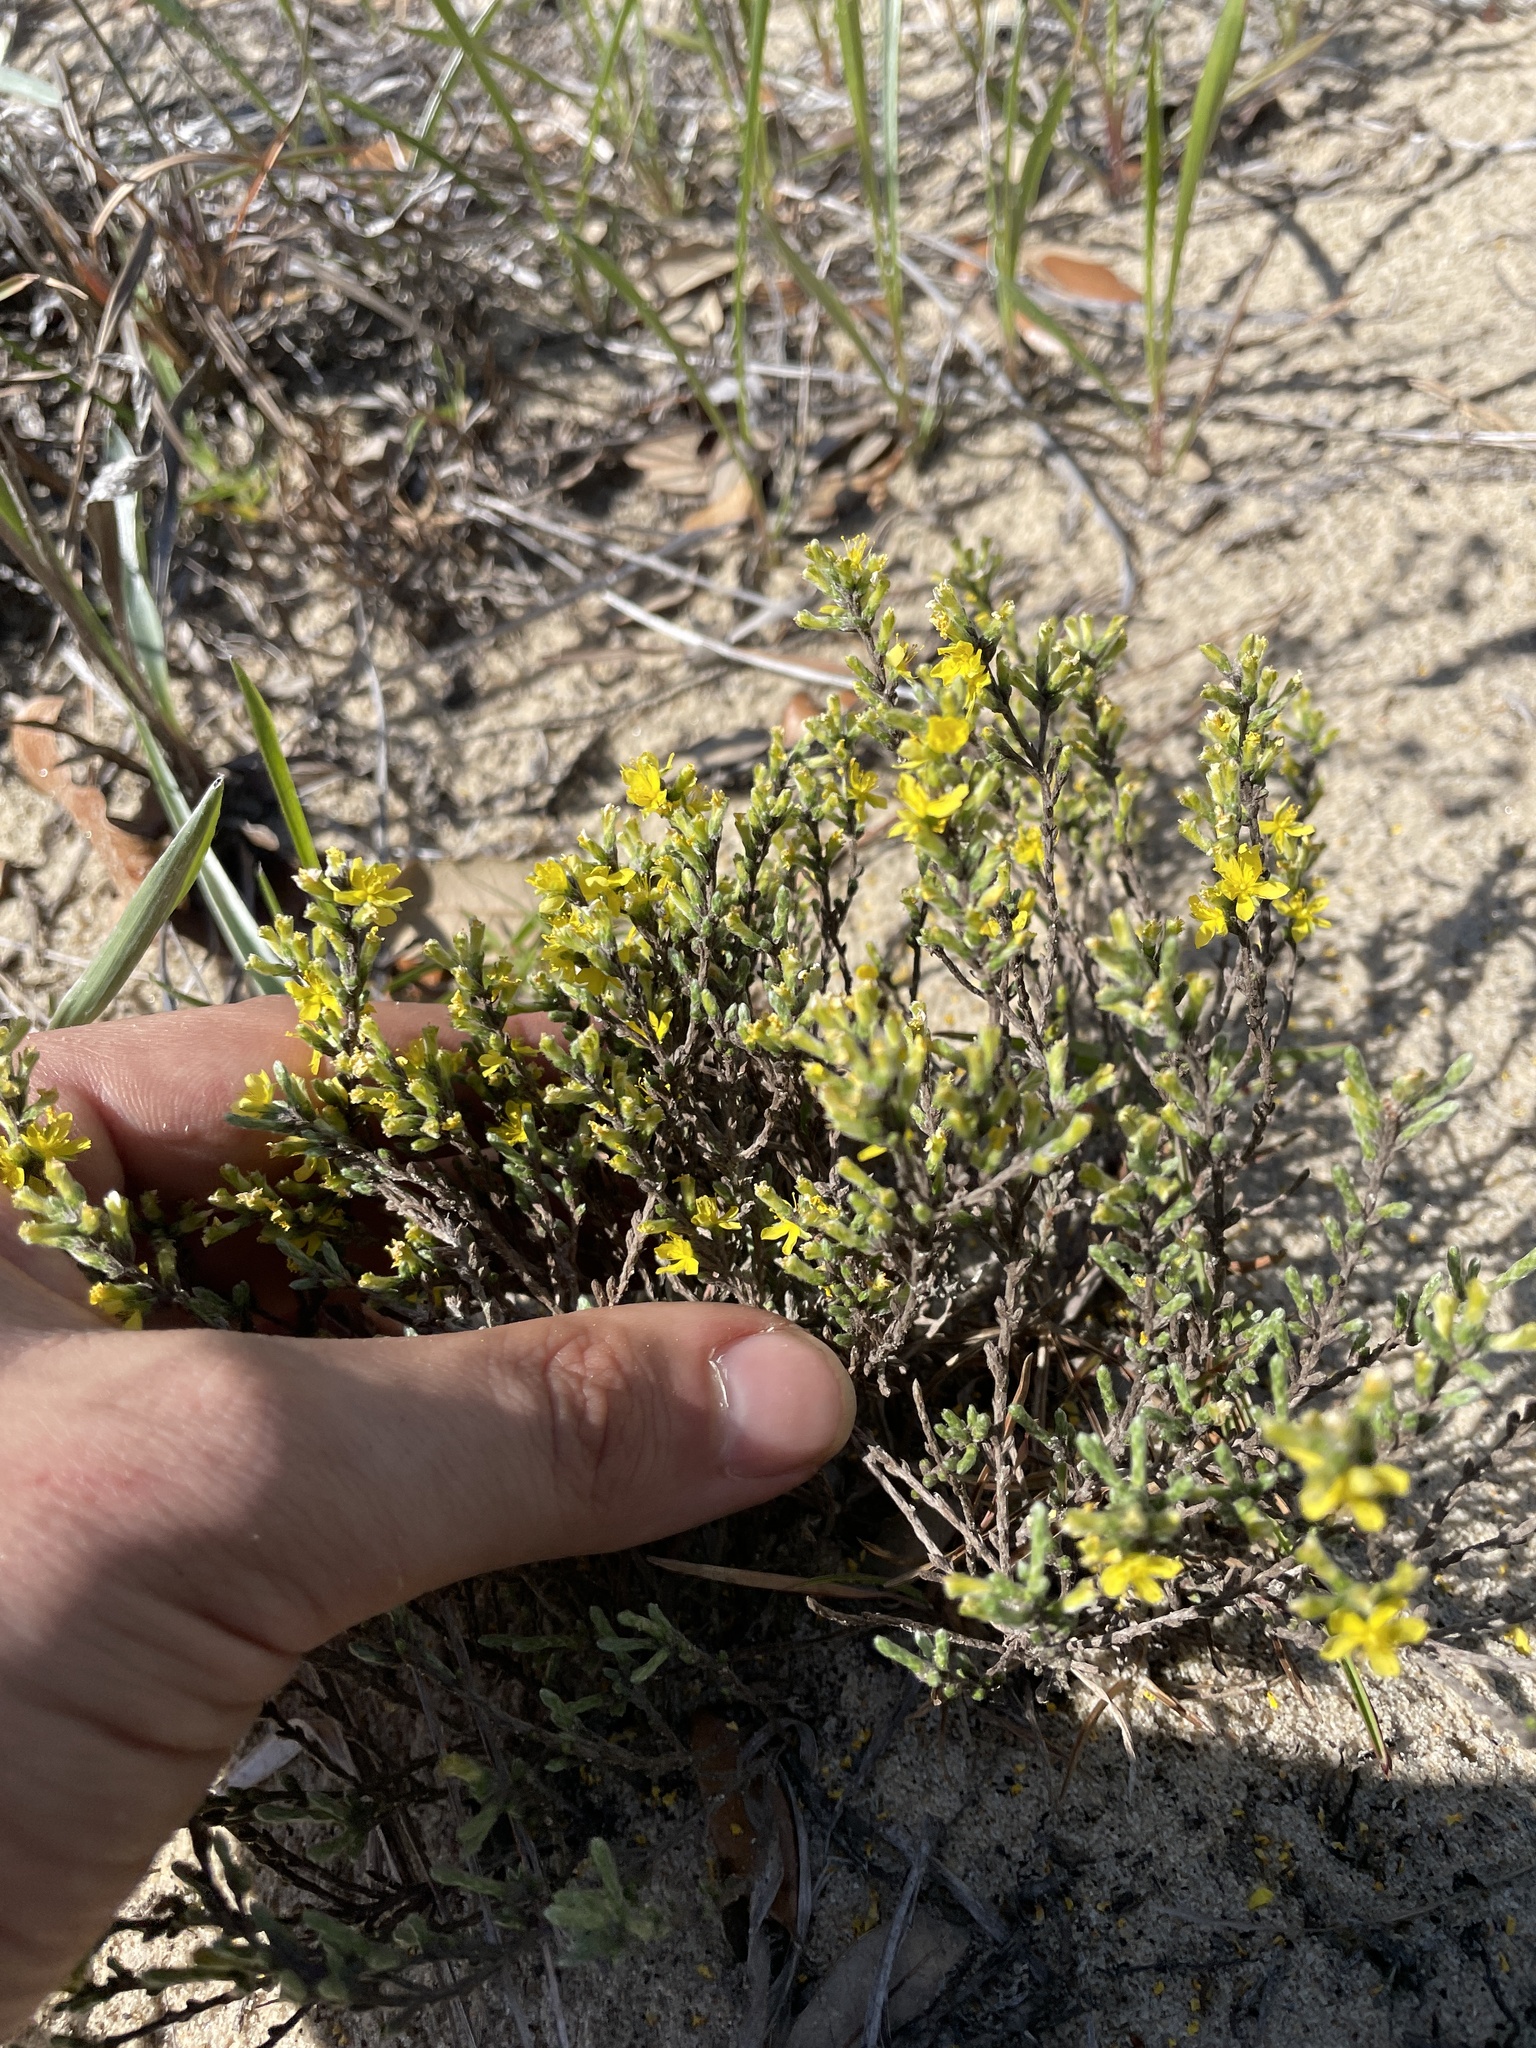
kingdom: Plantae
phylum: Tracheophyta
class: Magnoliopsida
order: Malvales
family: Cistaceae
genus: Hudsonia
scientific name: Hudsonia tomentosa
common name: Beach-heath
